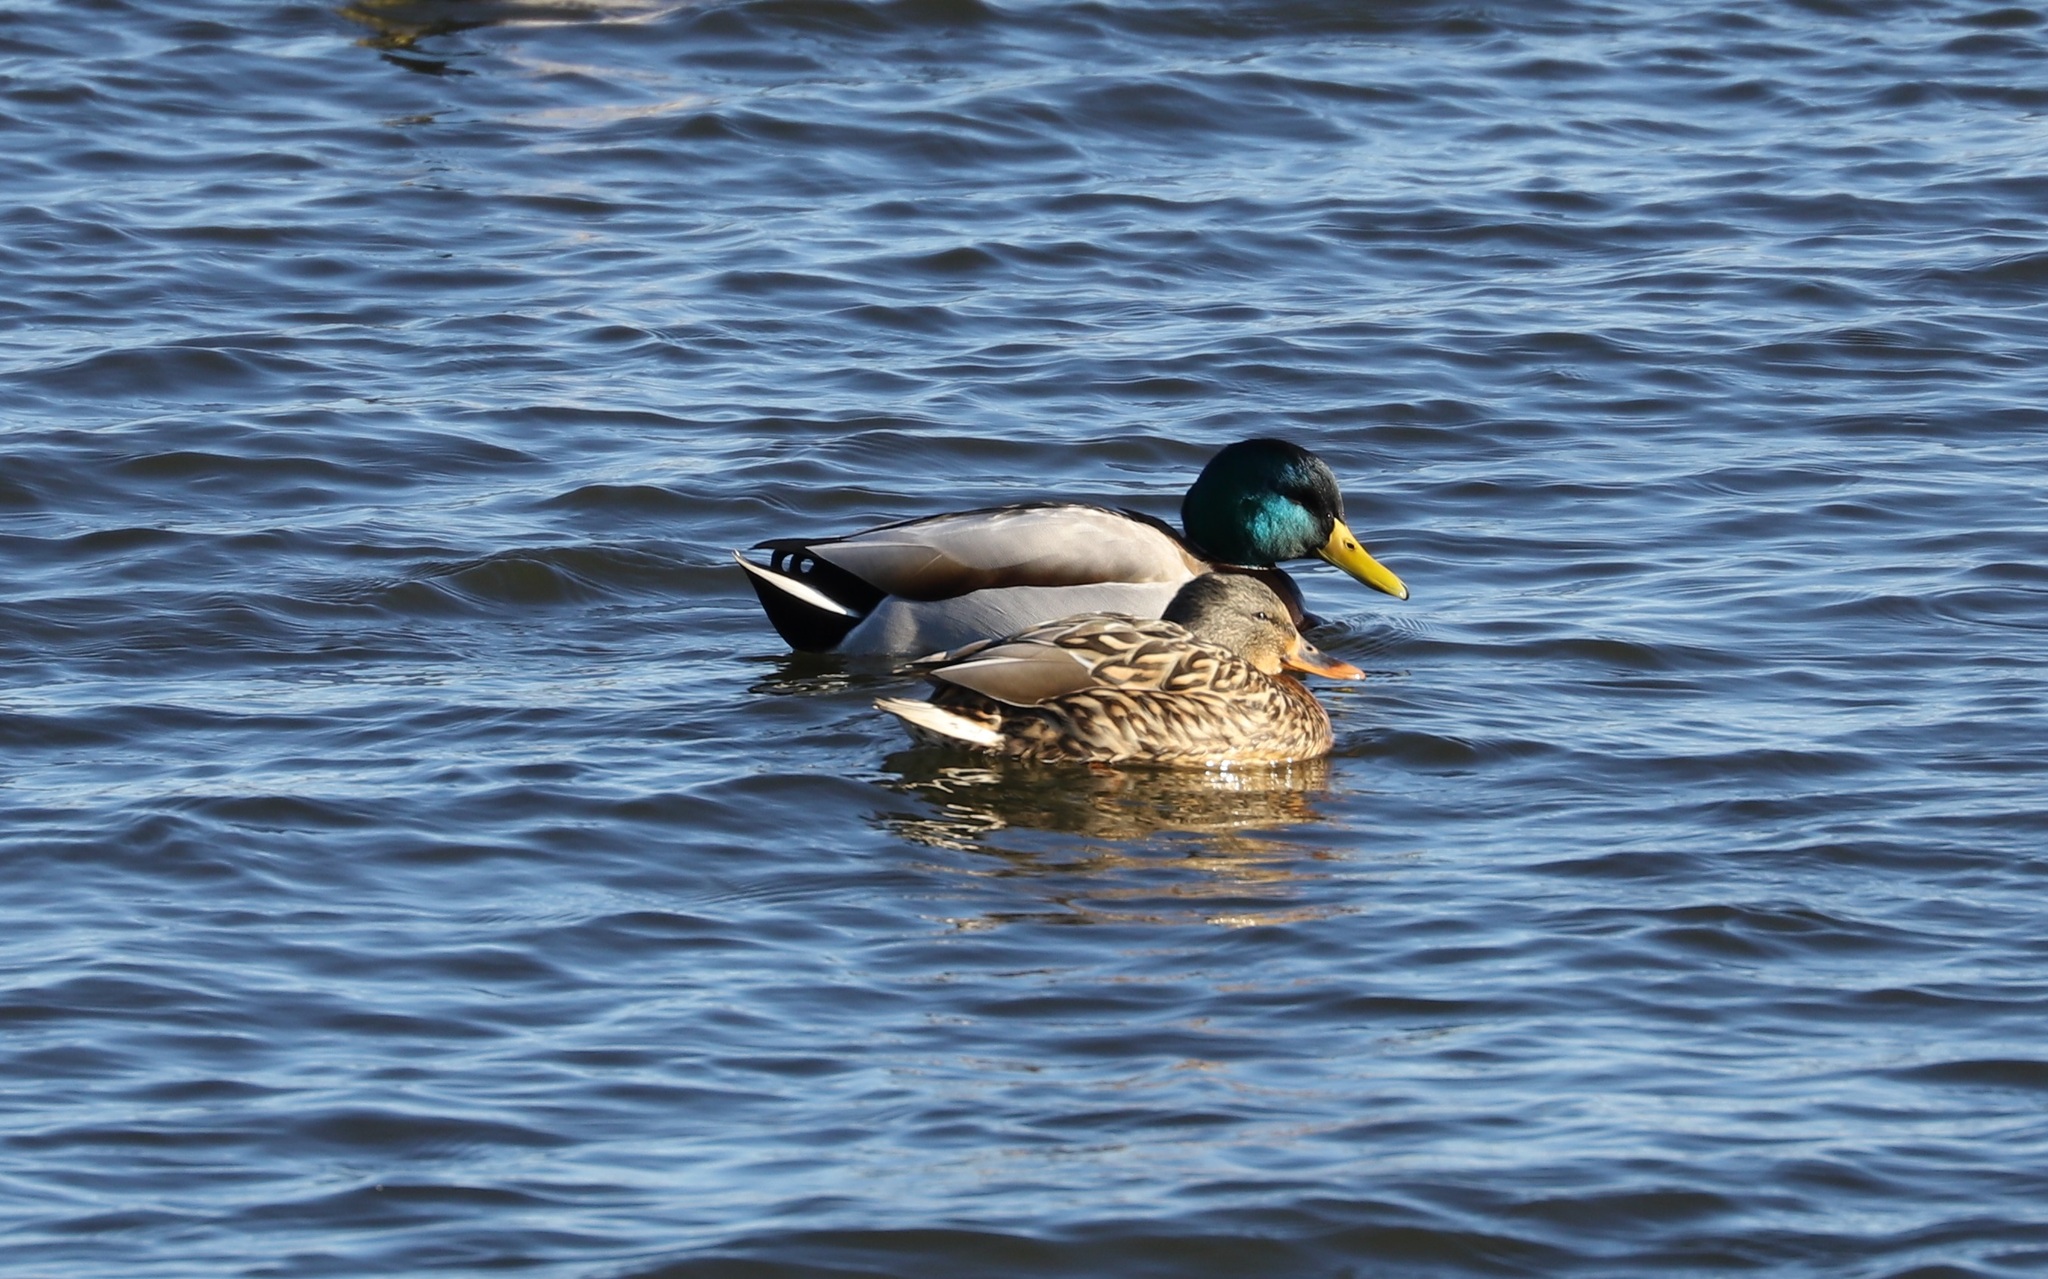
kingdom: Animalia
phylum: Chordata
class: Aves
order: Anseriformes
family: Anatidae
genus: Anas
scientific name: Anas platyrhynchos
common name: Mallard
